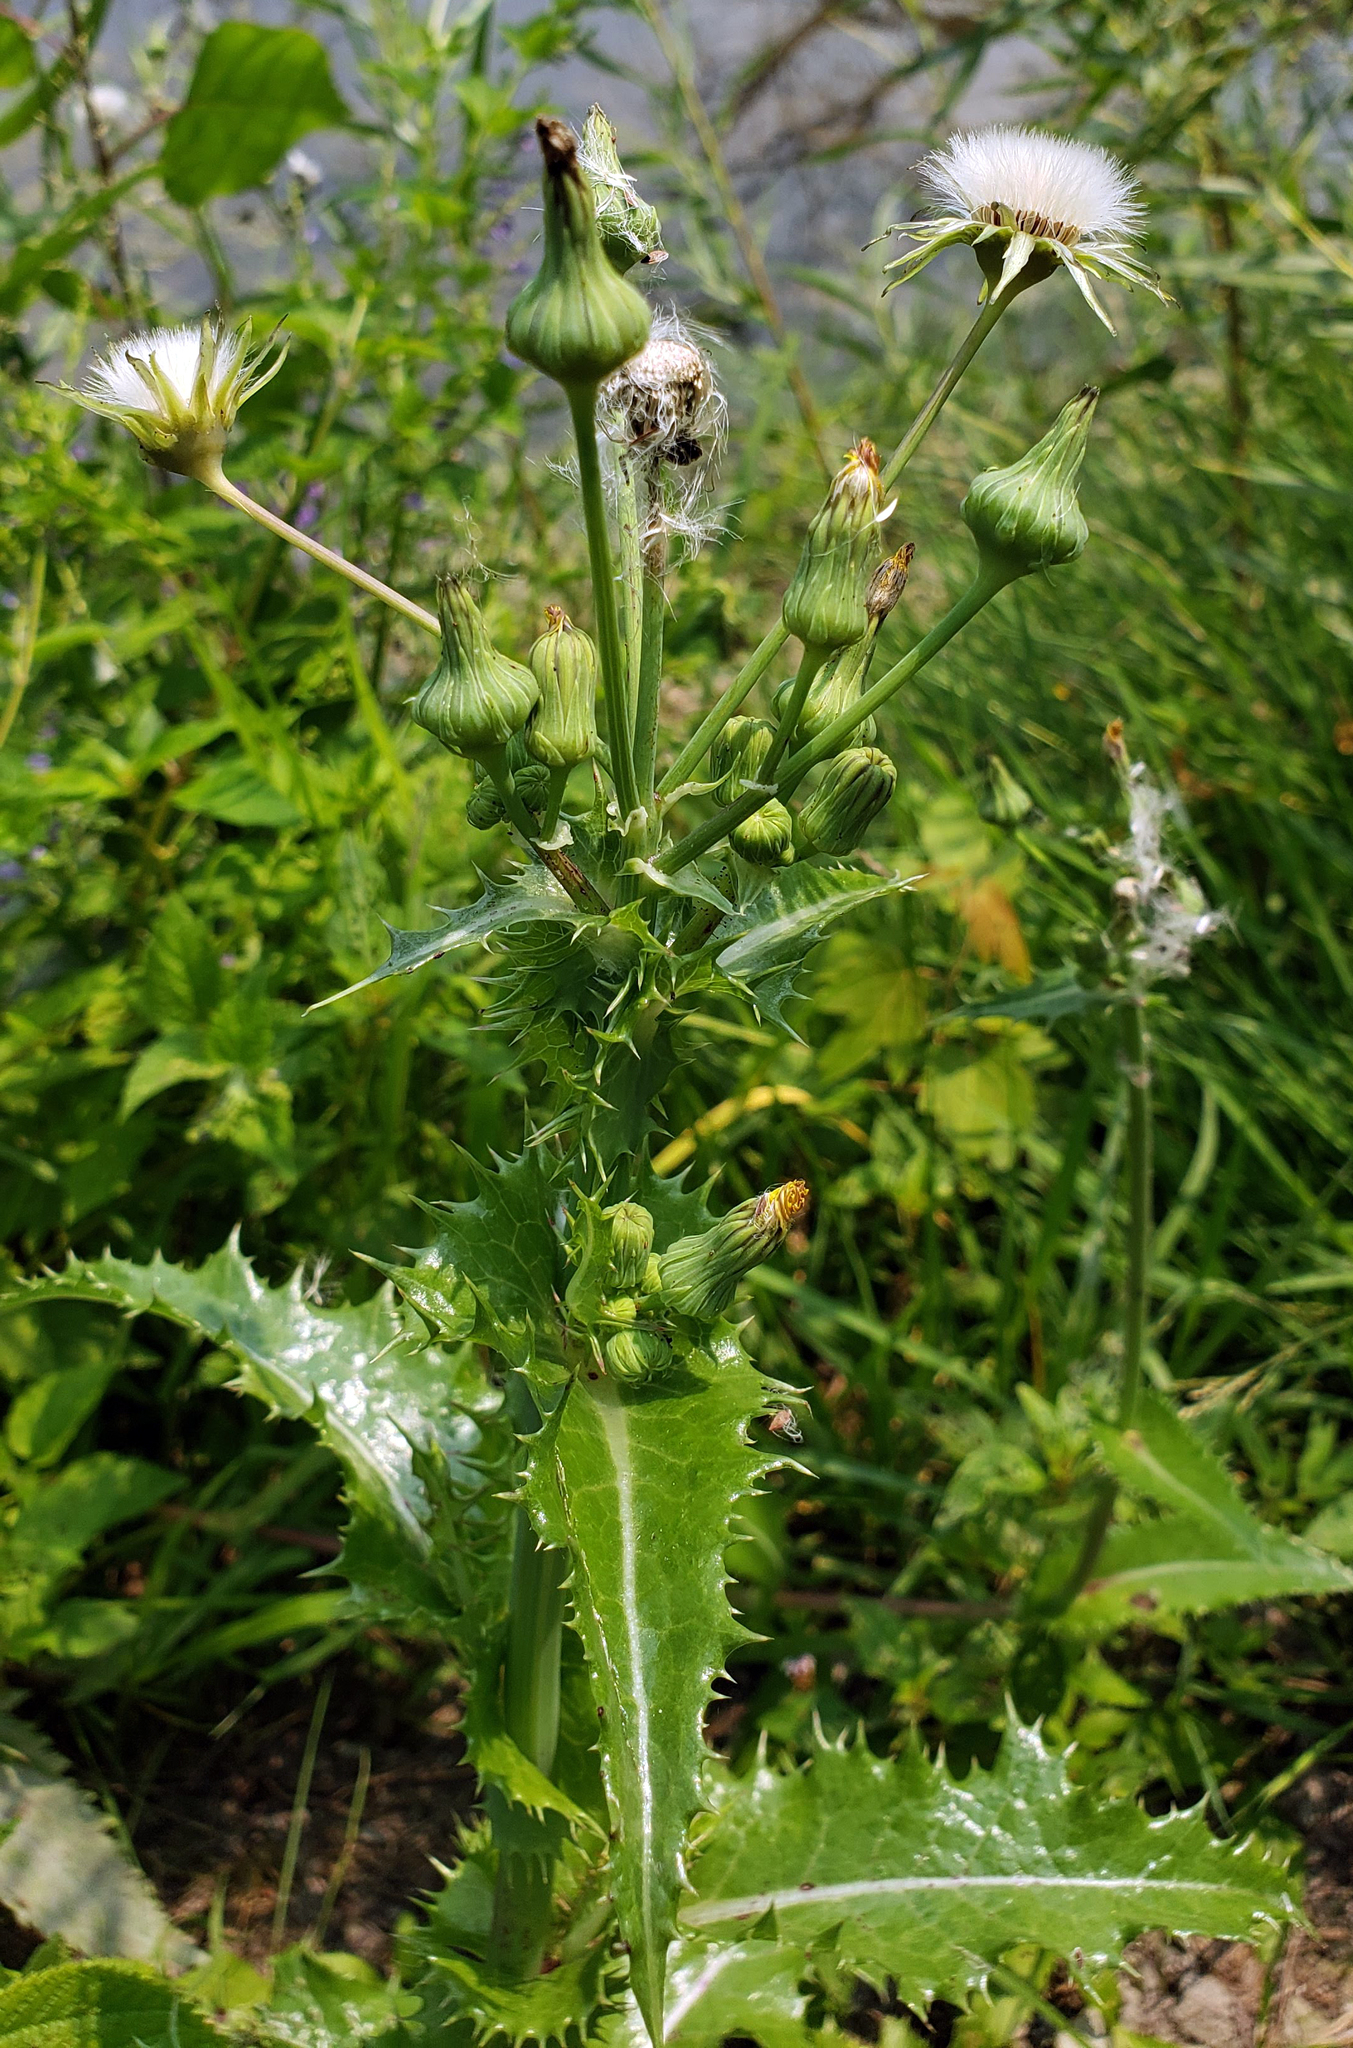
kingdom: Plantae
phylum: Tracheophyta
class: Magnoliopsida
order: Asterales
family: Asteraceae
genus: Sonchus
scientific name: Sonchus asper
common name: Prickly sow-thistle
